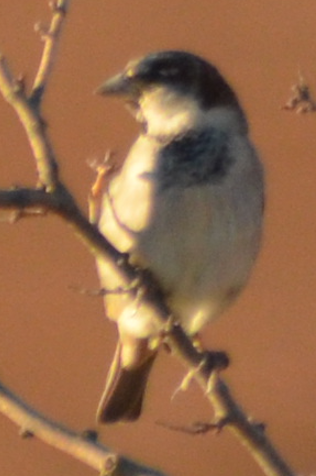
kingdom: Animalia
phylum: Chordata
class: Aves
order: Passeriformes
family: Passeridae
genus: Passer
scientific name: Passer domesticus
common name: House sparrow
